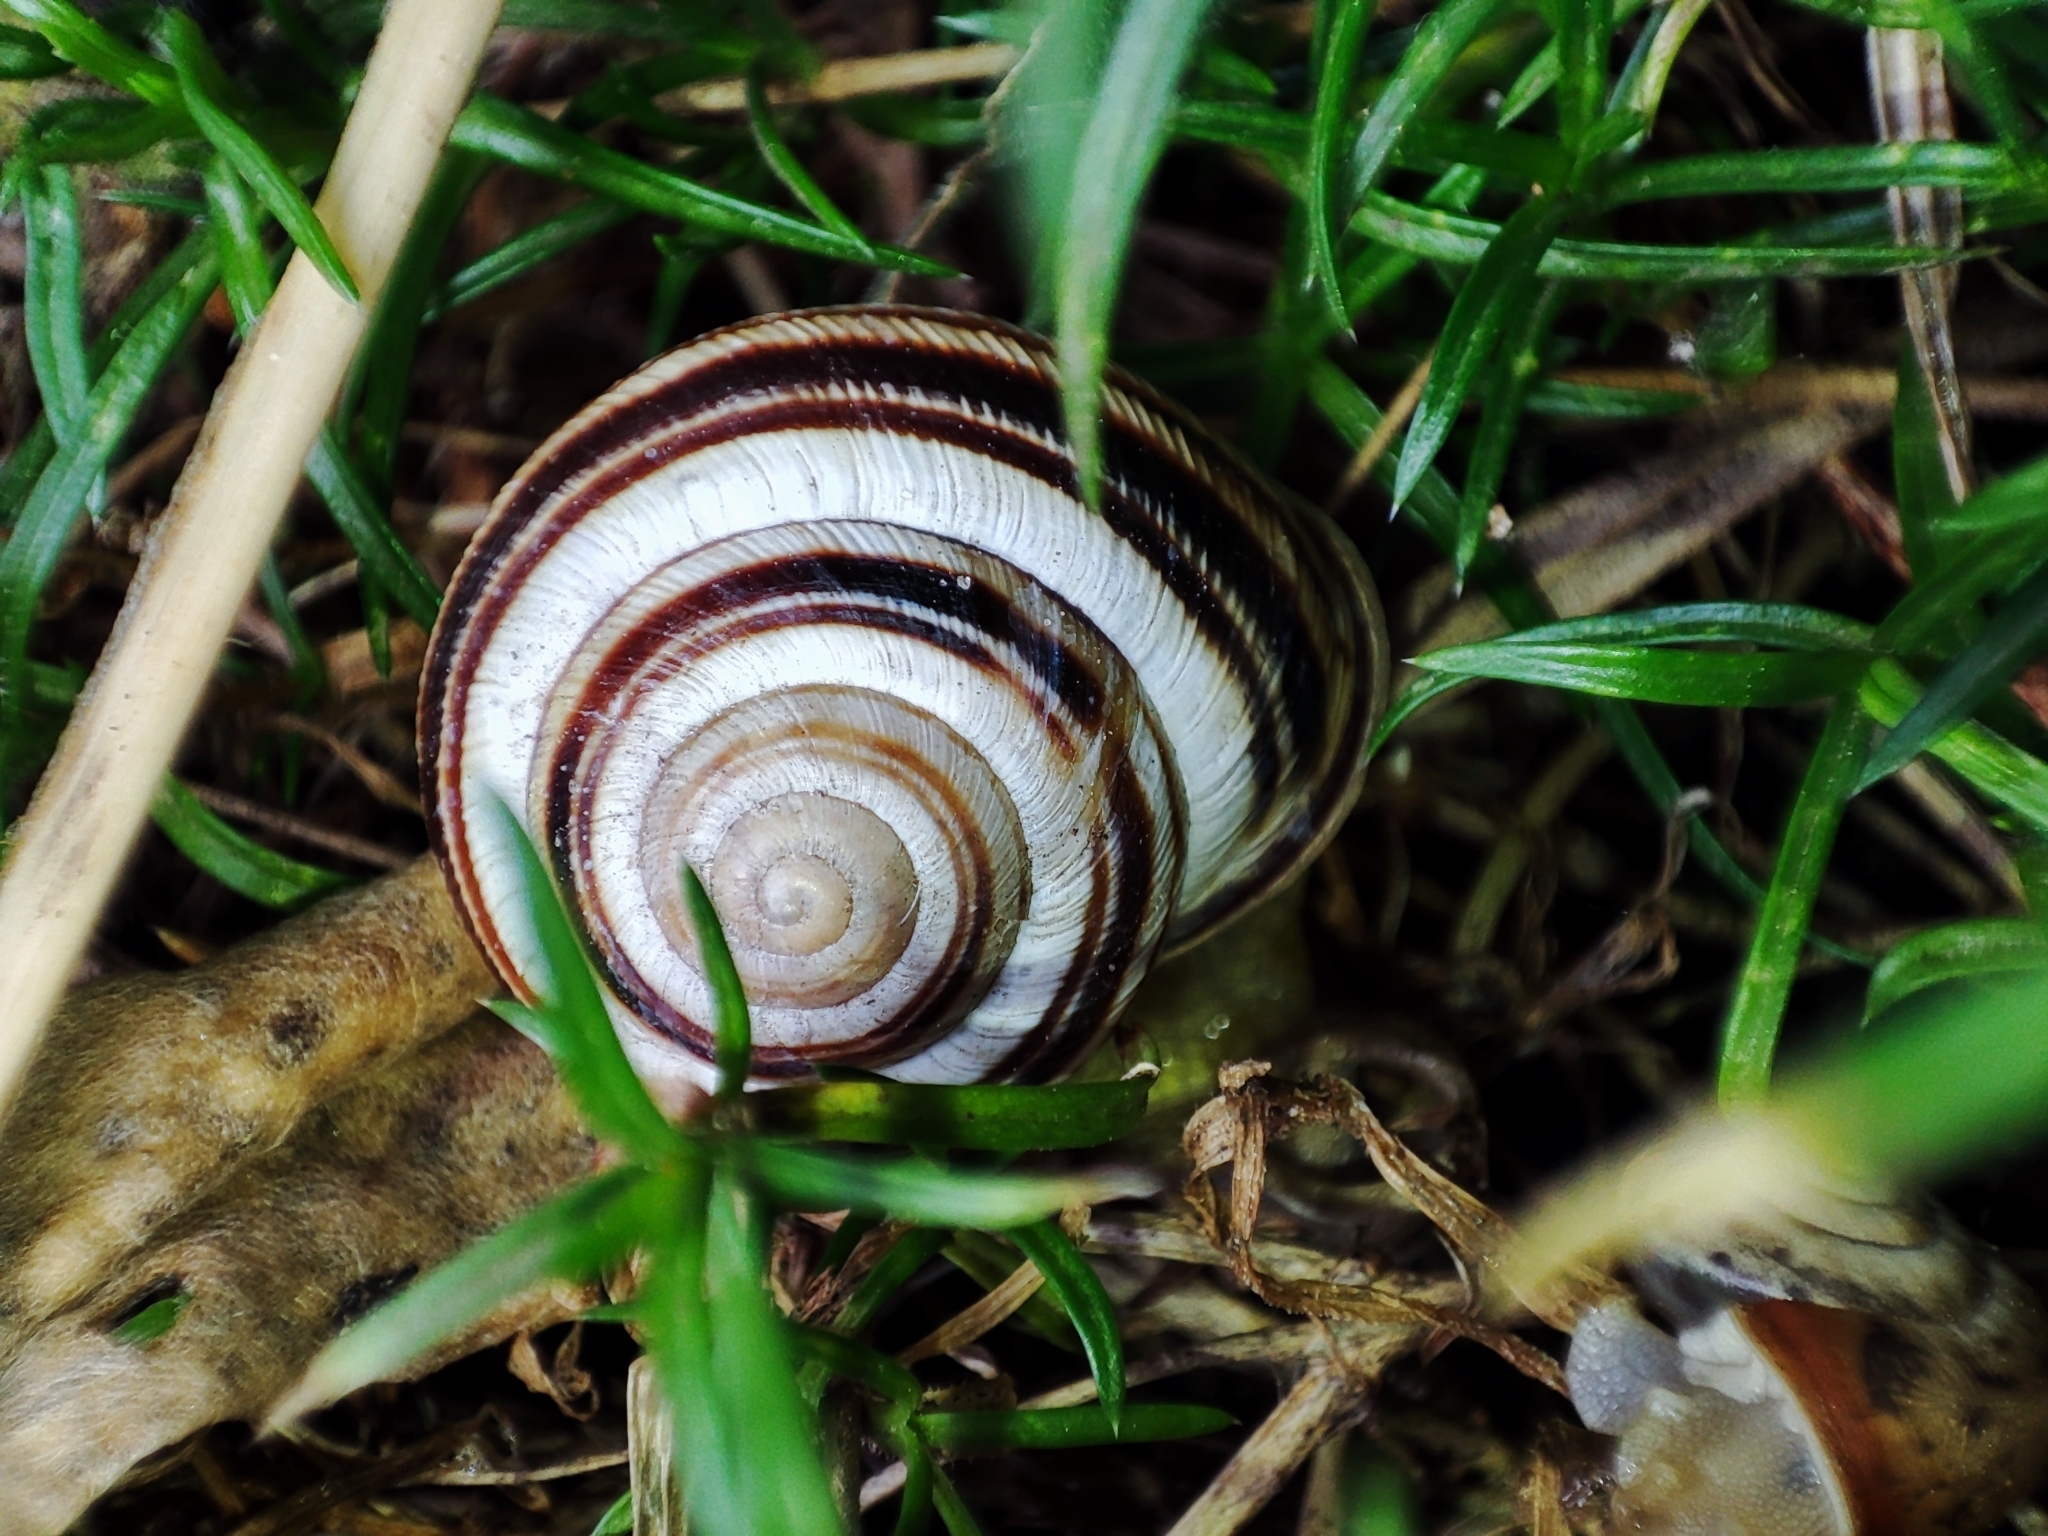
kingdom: Animalia
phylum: Mollusca
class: Gastropoda
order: Stylommatophora
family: Helicidae
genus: Caucasotachea
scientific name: Caucasotachea vindobonensis
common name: European helicid land snail
